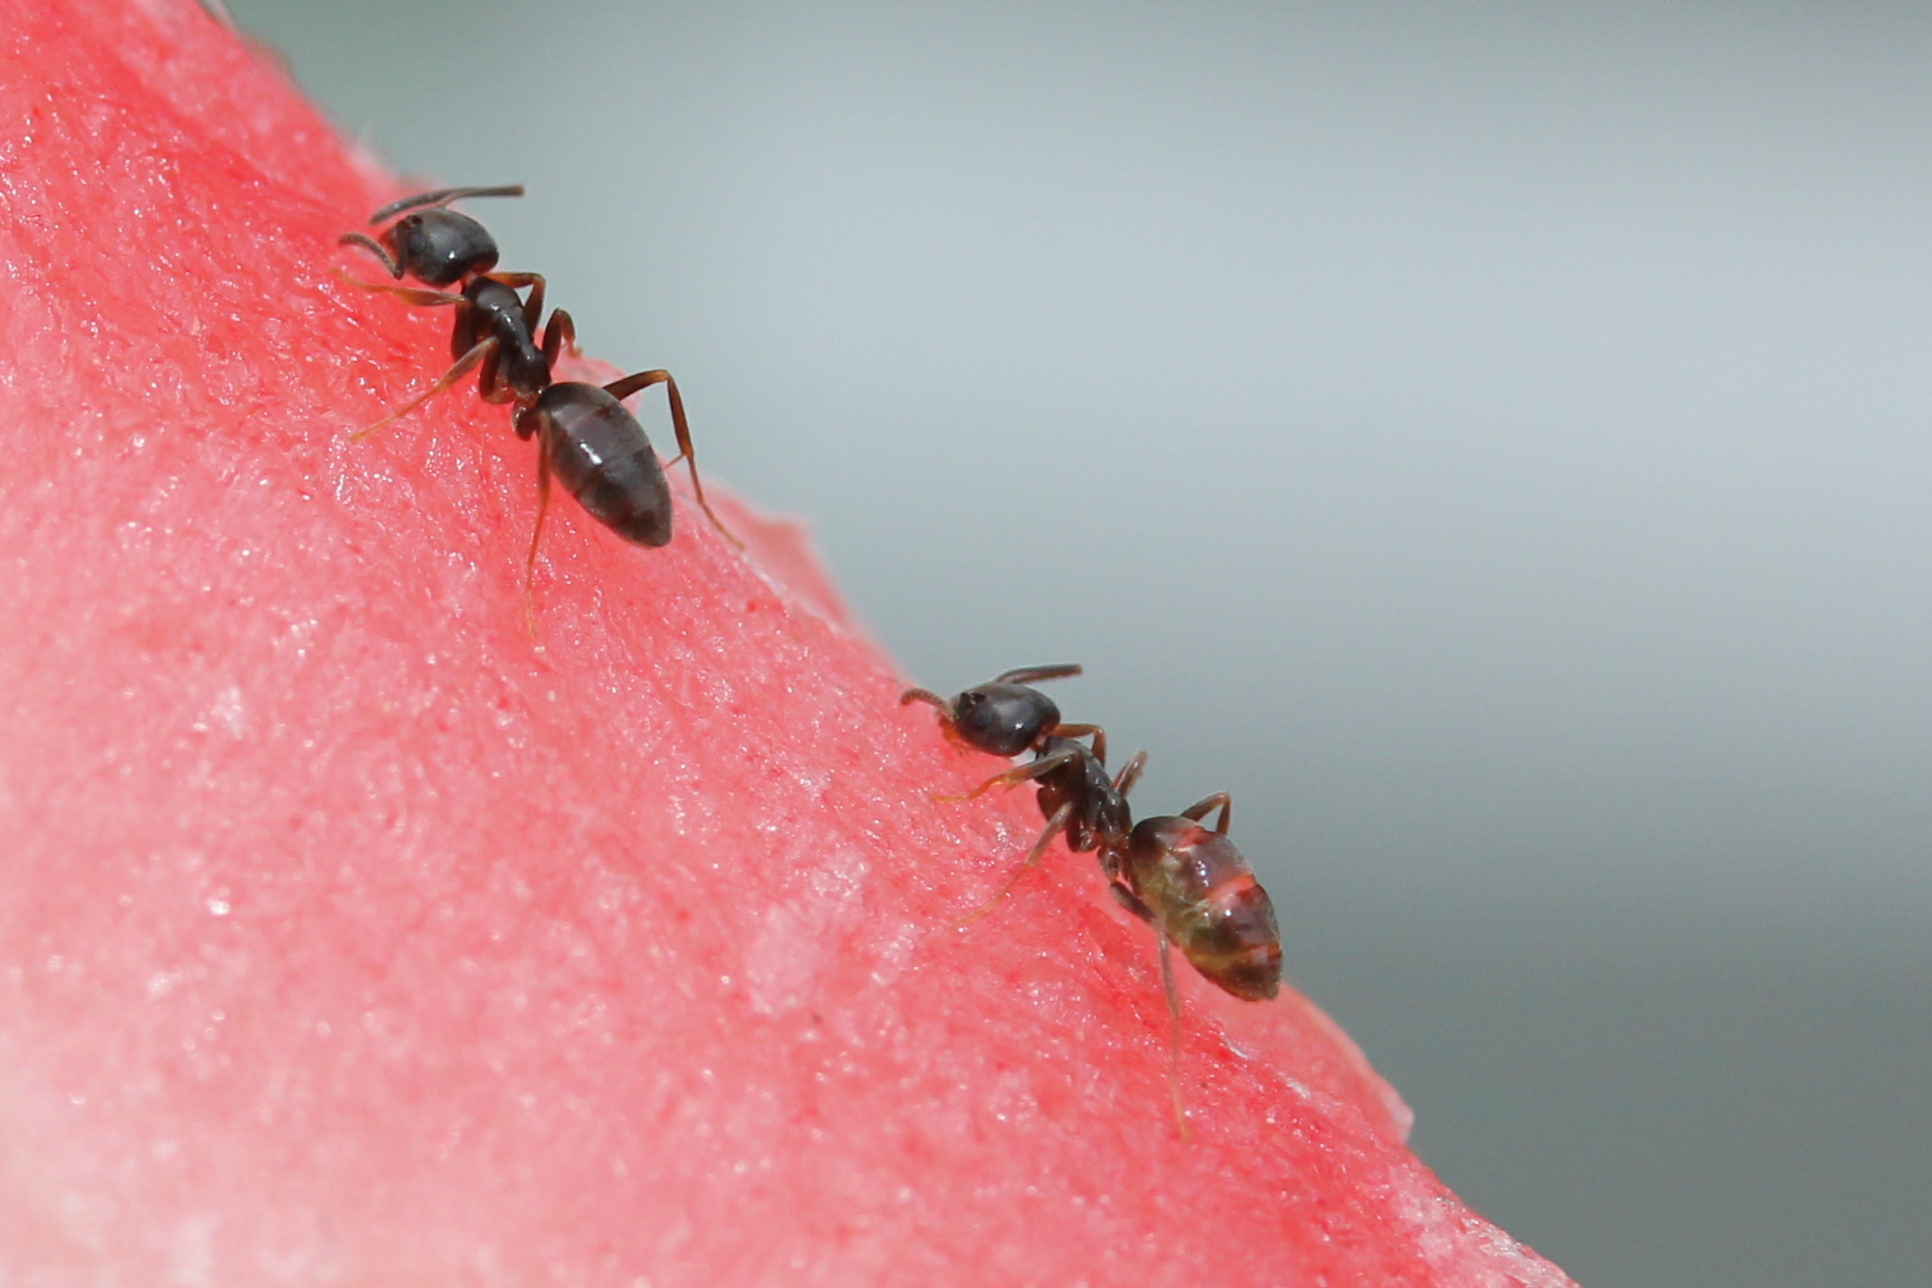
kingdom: Animalia
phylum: Arthropoda
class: Insecta
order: Hymenoptera
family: Formicidae
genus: Tapinoma
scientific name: Tapinoma sessile
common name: Odorous house ant
